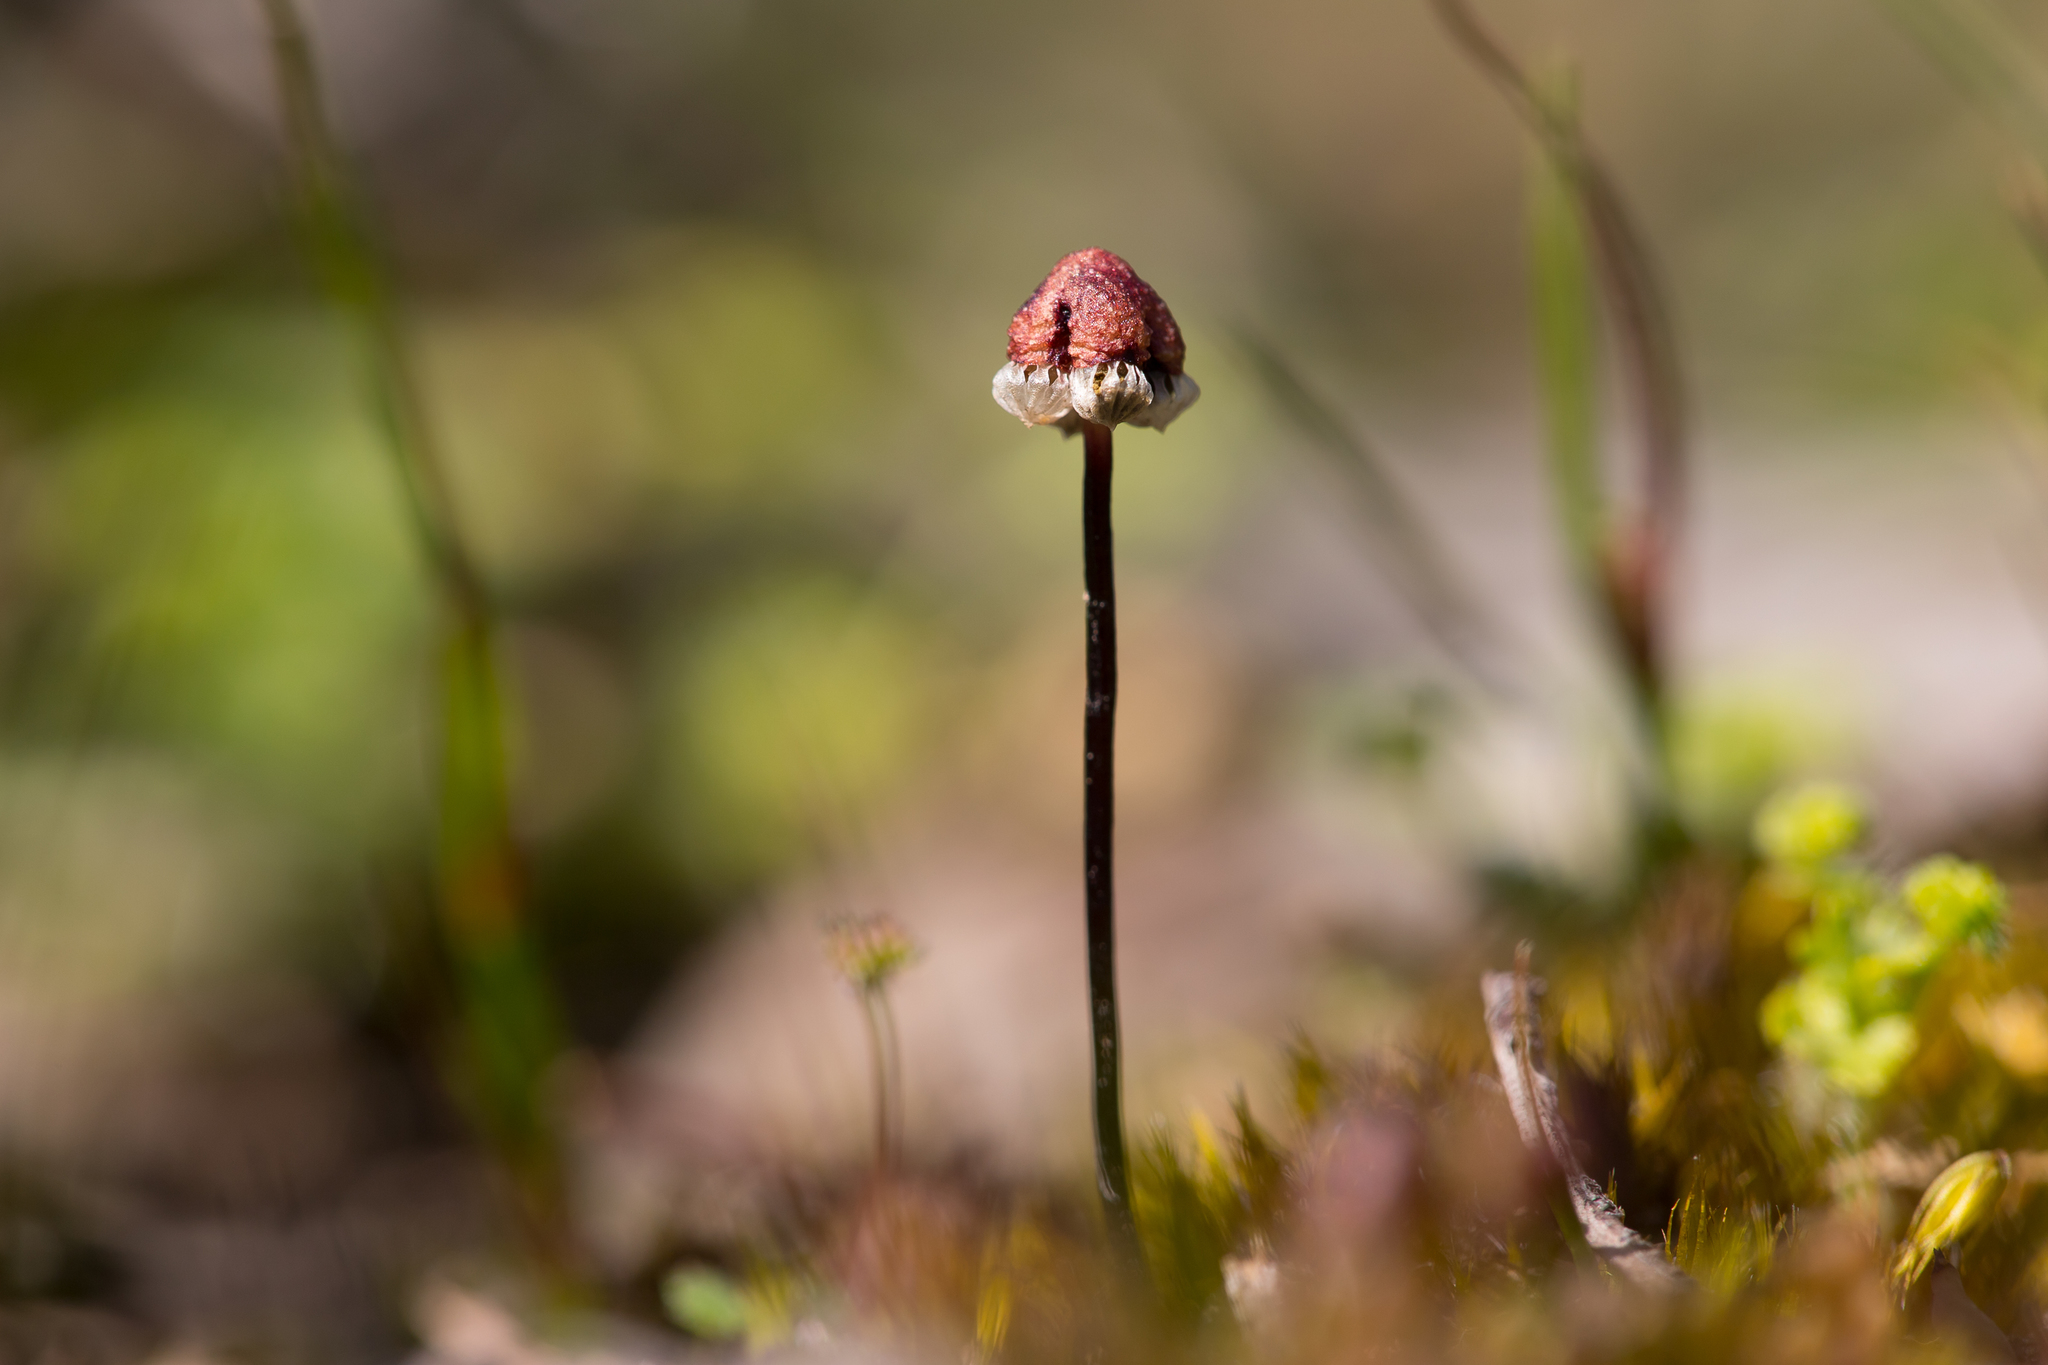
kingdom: Plantae
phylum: Marchantiophyta
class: Marchantiopsida
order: Marchantiales
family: Aytoniaceae
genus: Asterella
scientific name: Asterella drummondii
